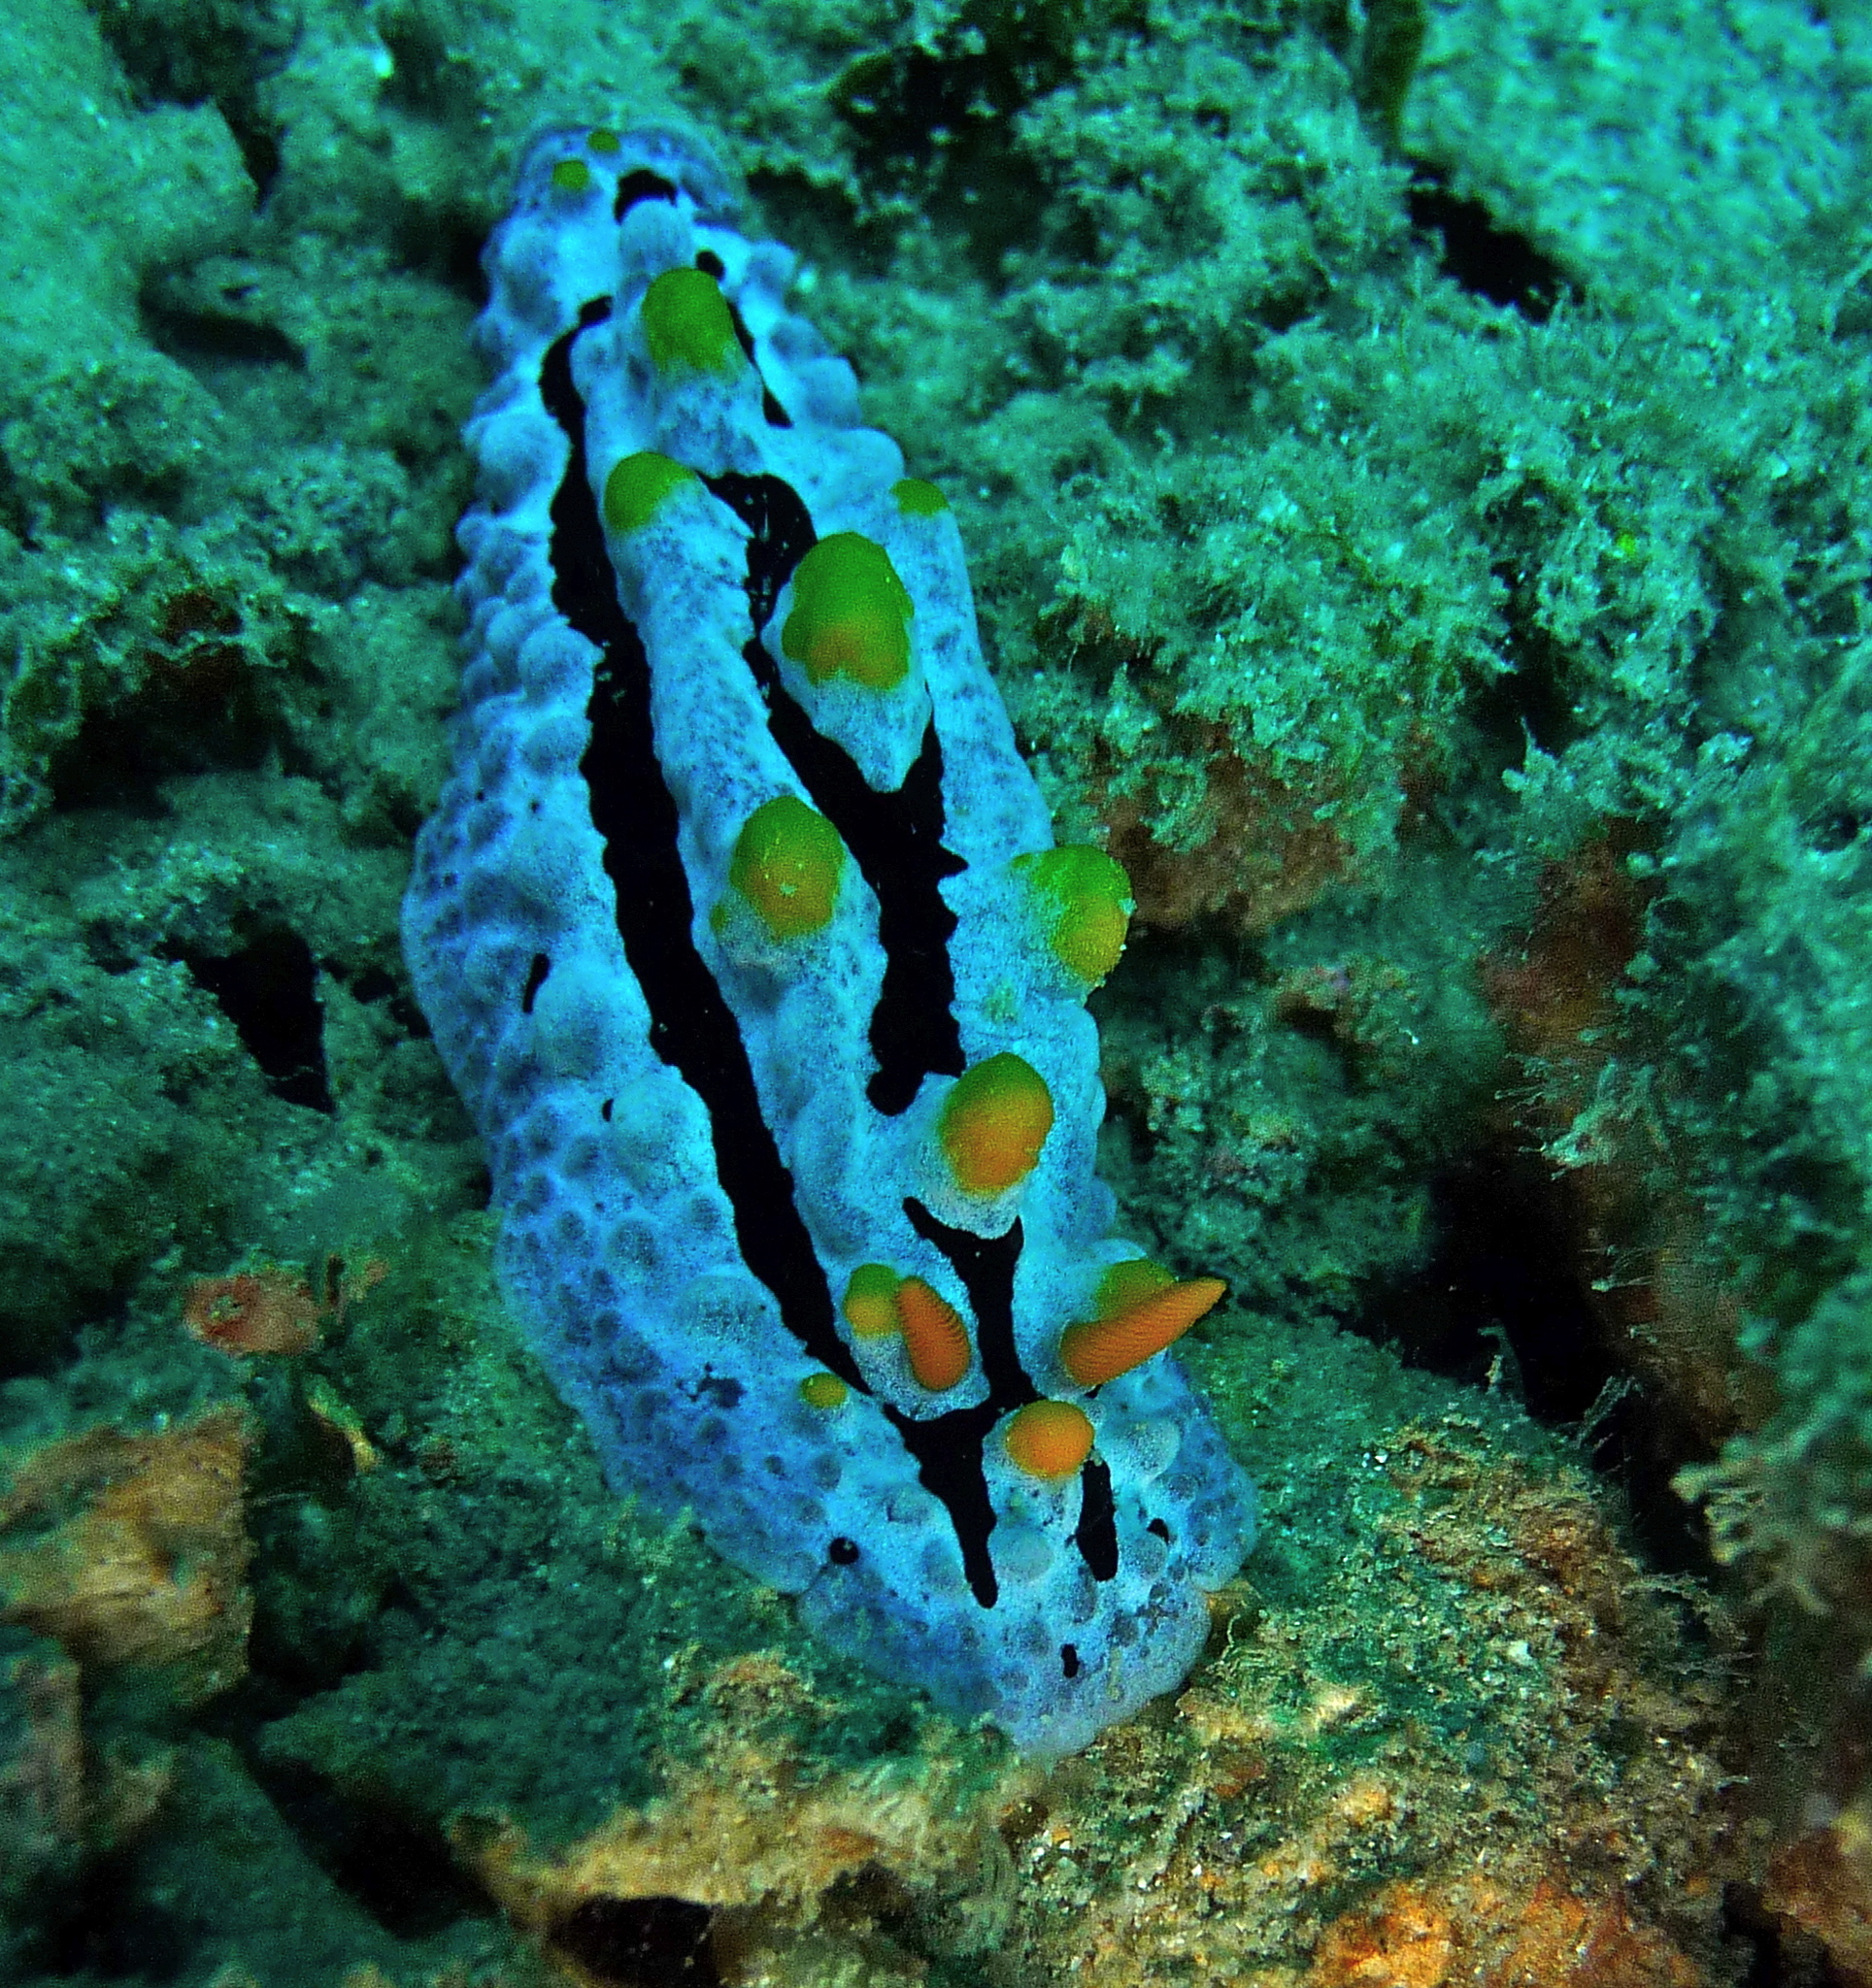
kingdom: Animalia
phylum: Mollusca
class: Gastropoda
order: Nudibranchia
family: Phyllidiidae
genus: Phyllidia
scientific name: Phyllidia coelestis
